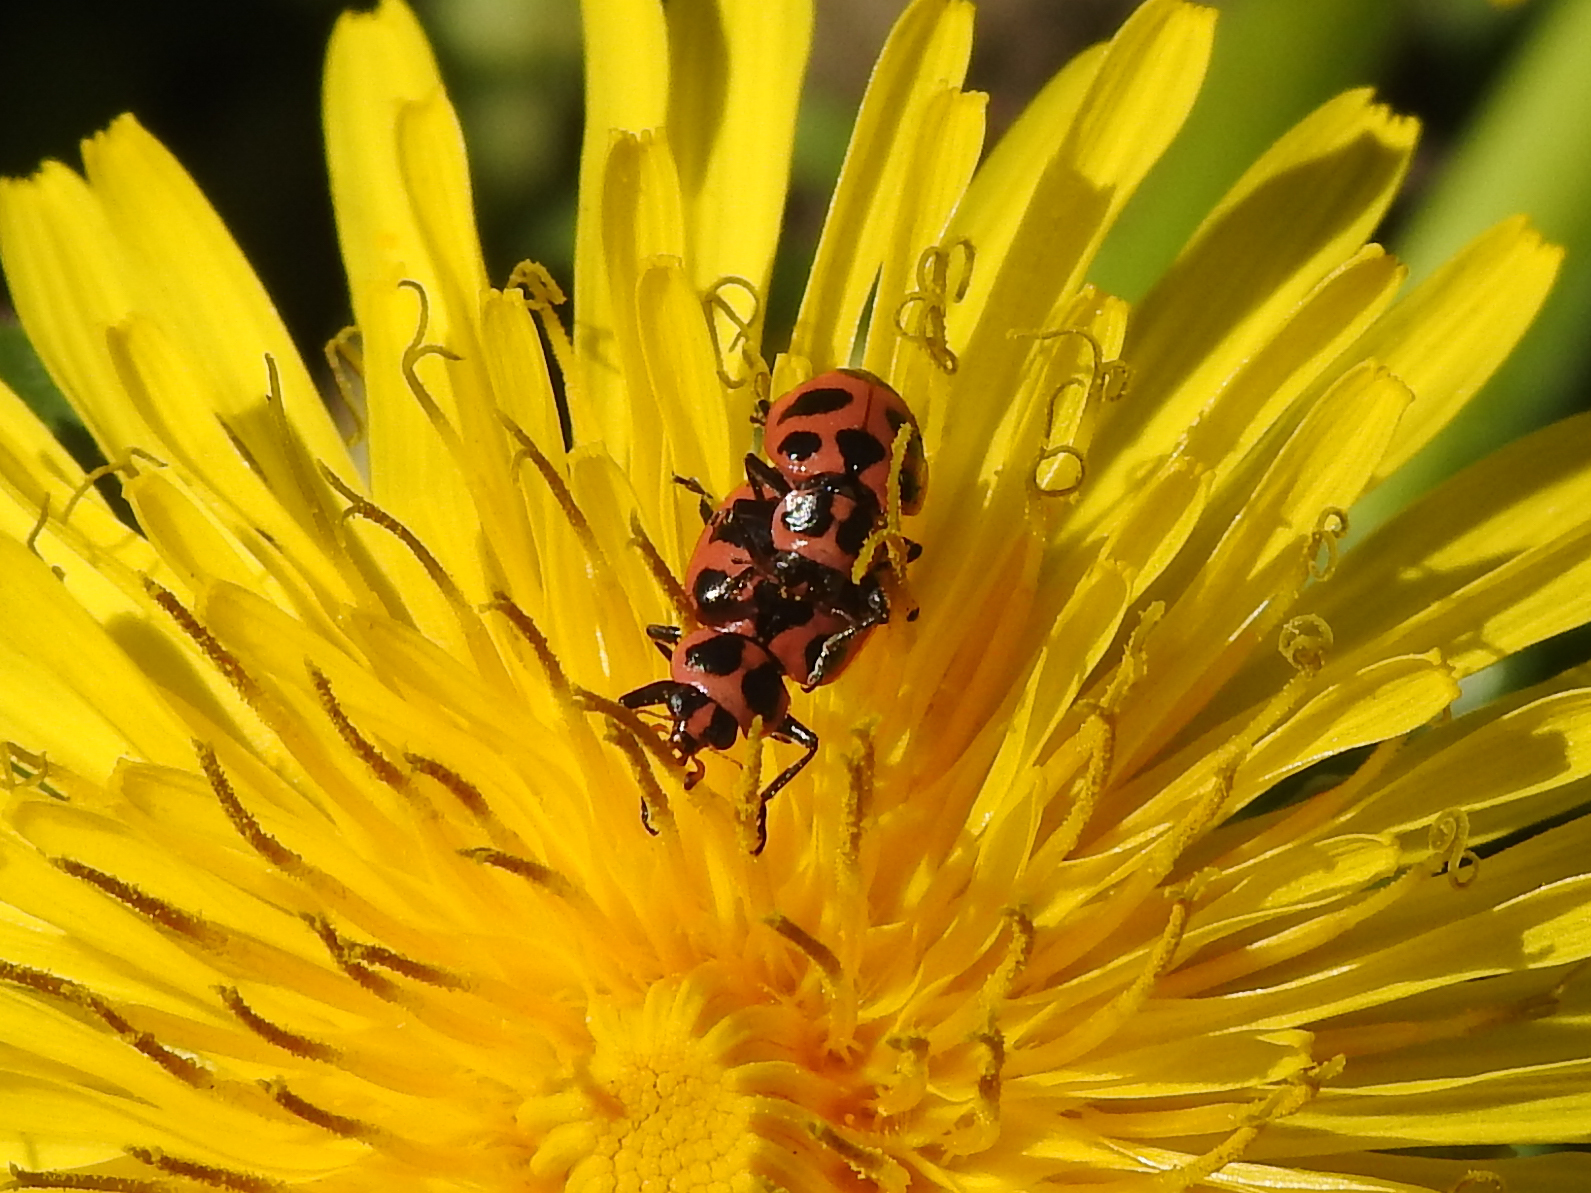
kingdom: Animalia
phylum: Arthropoda
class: Insecta
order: Coleoptera
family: Coccinellidae
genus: Coleomegilla
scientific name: Coleomegilla maculata
